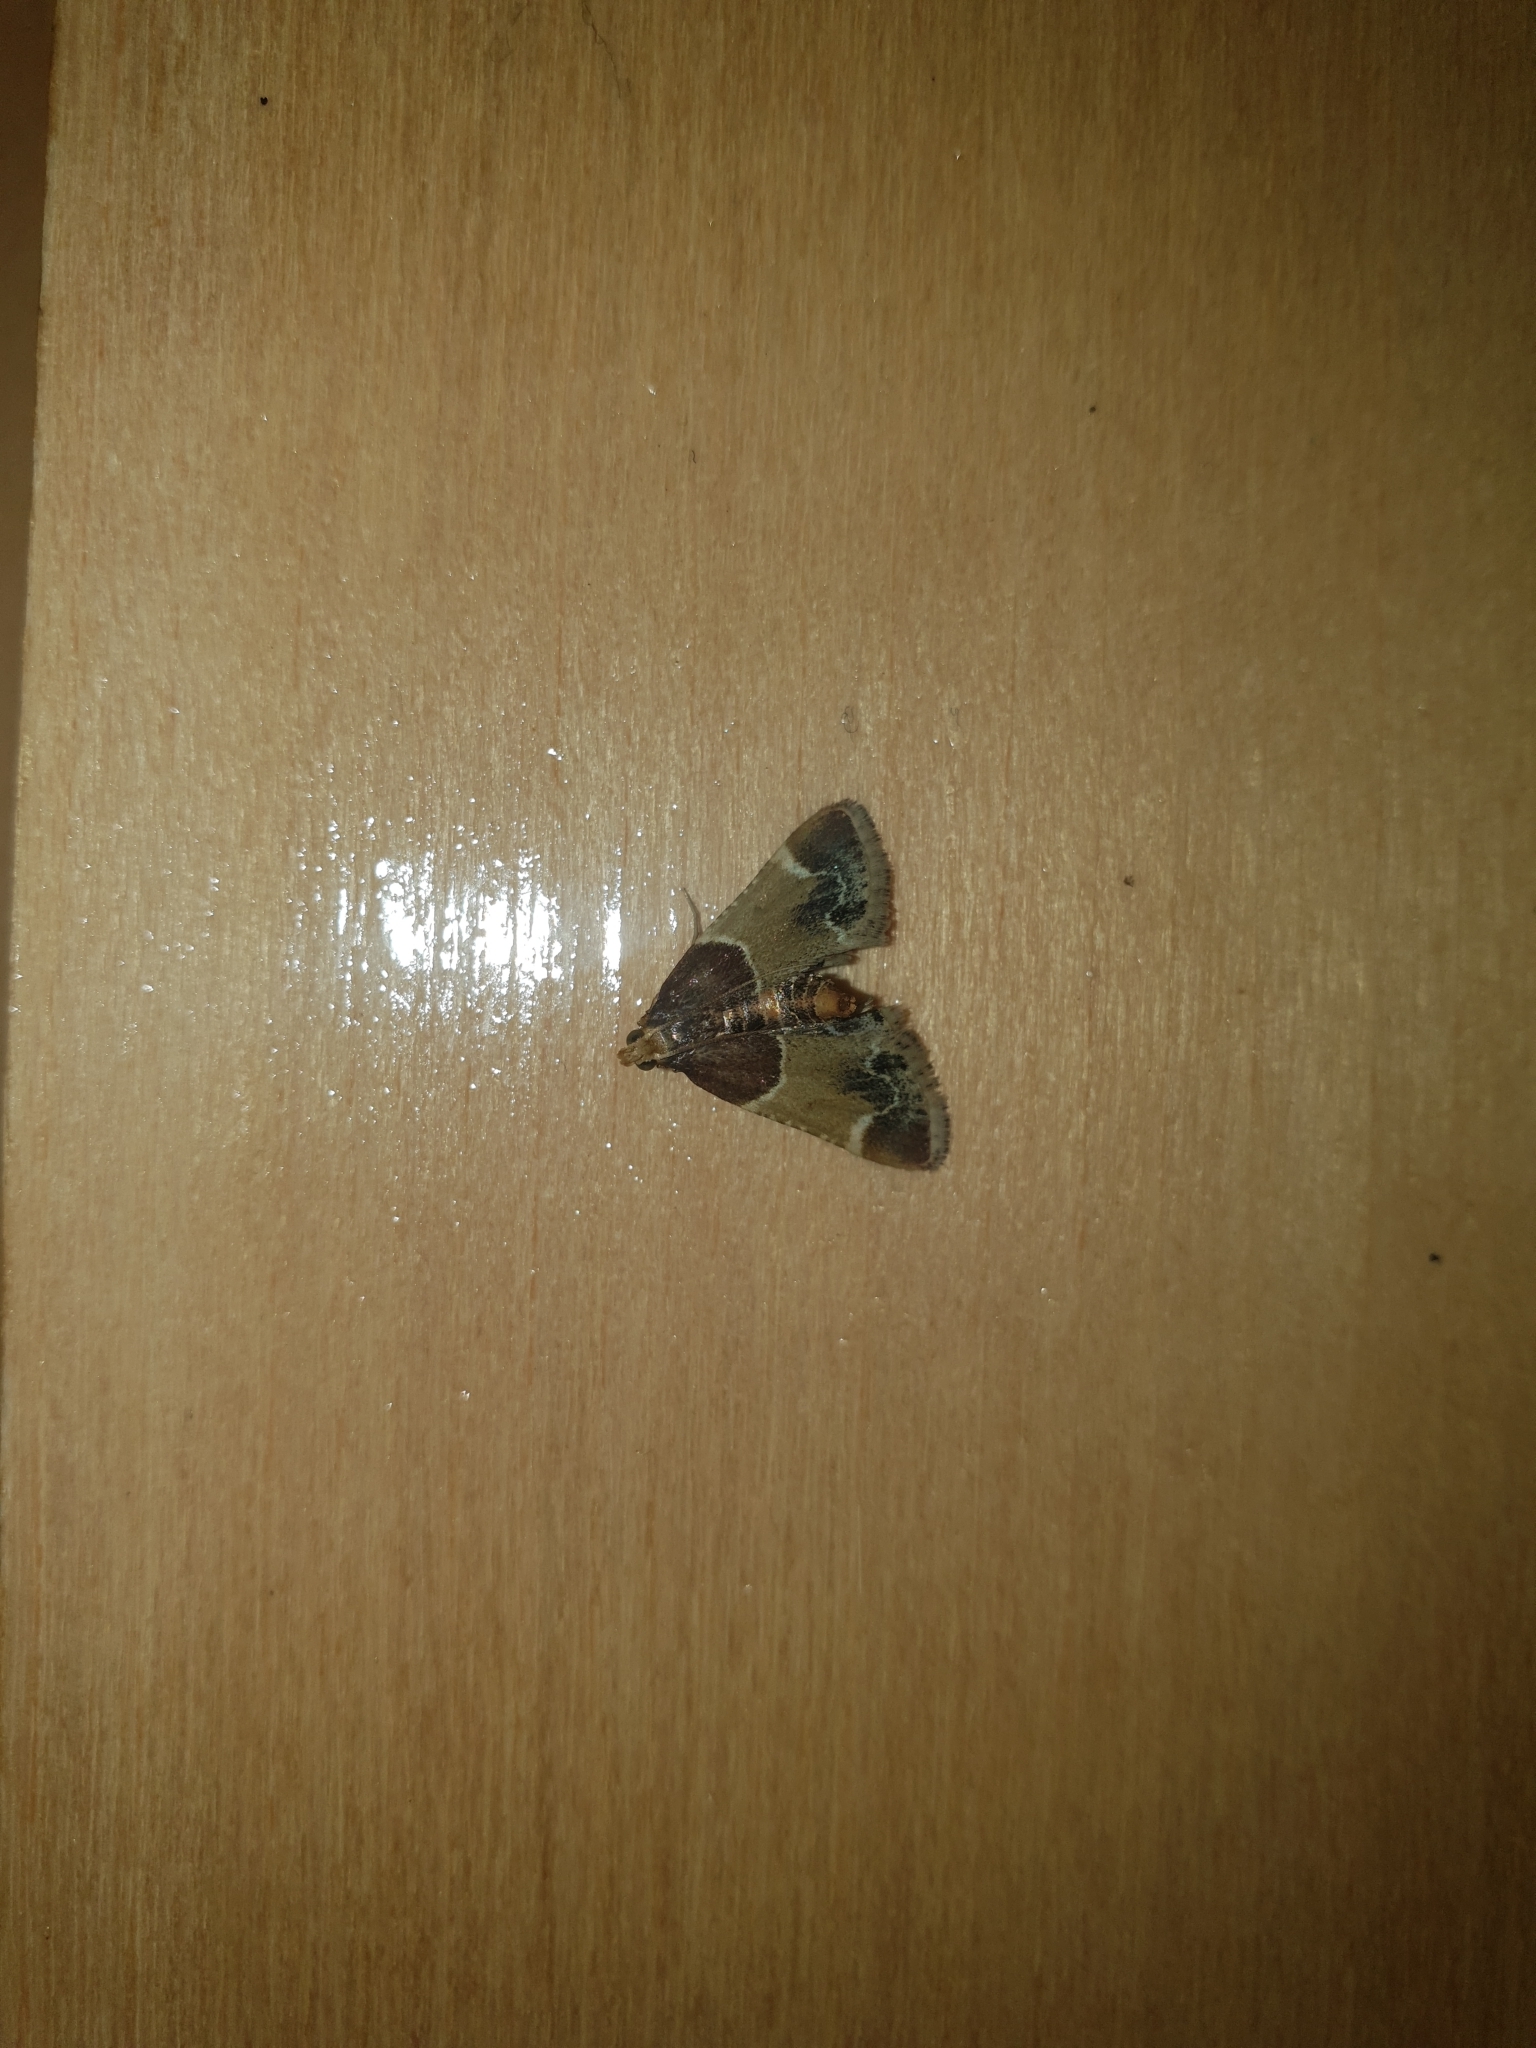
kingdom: Animalia
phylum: Arthropoda
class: Insecta
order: Lepidoptera
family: Pyralidae
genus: Pyralis
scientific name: Pyralis farinalis
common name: Meal moth
